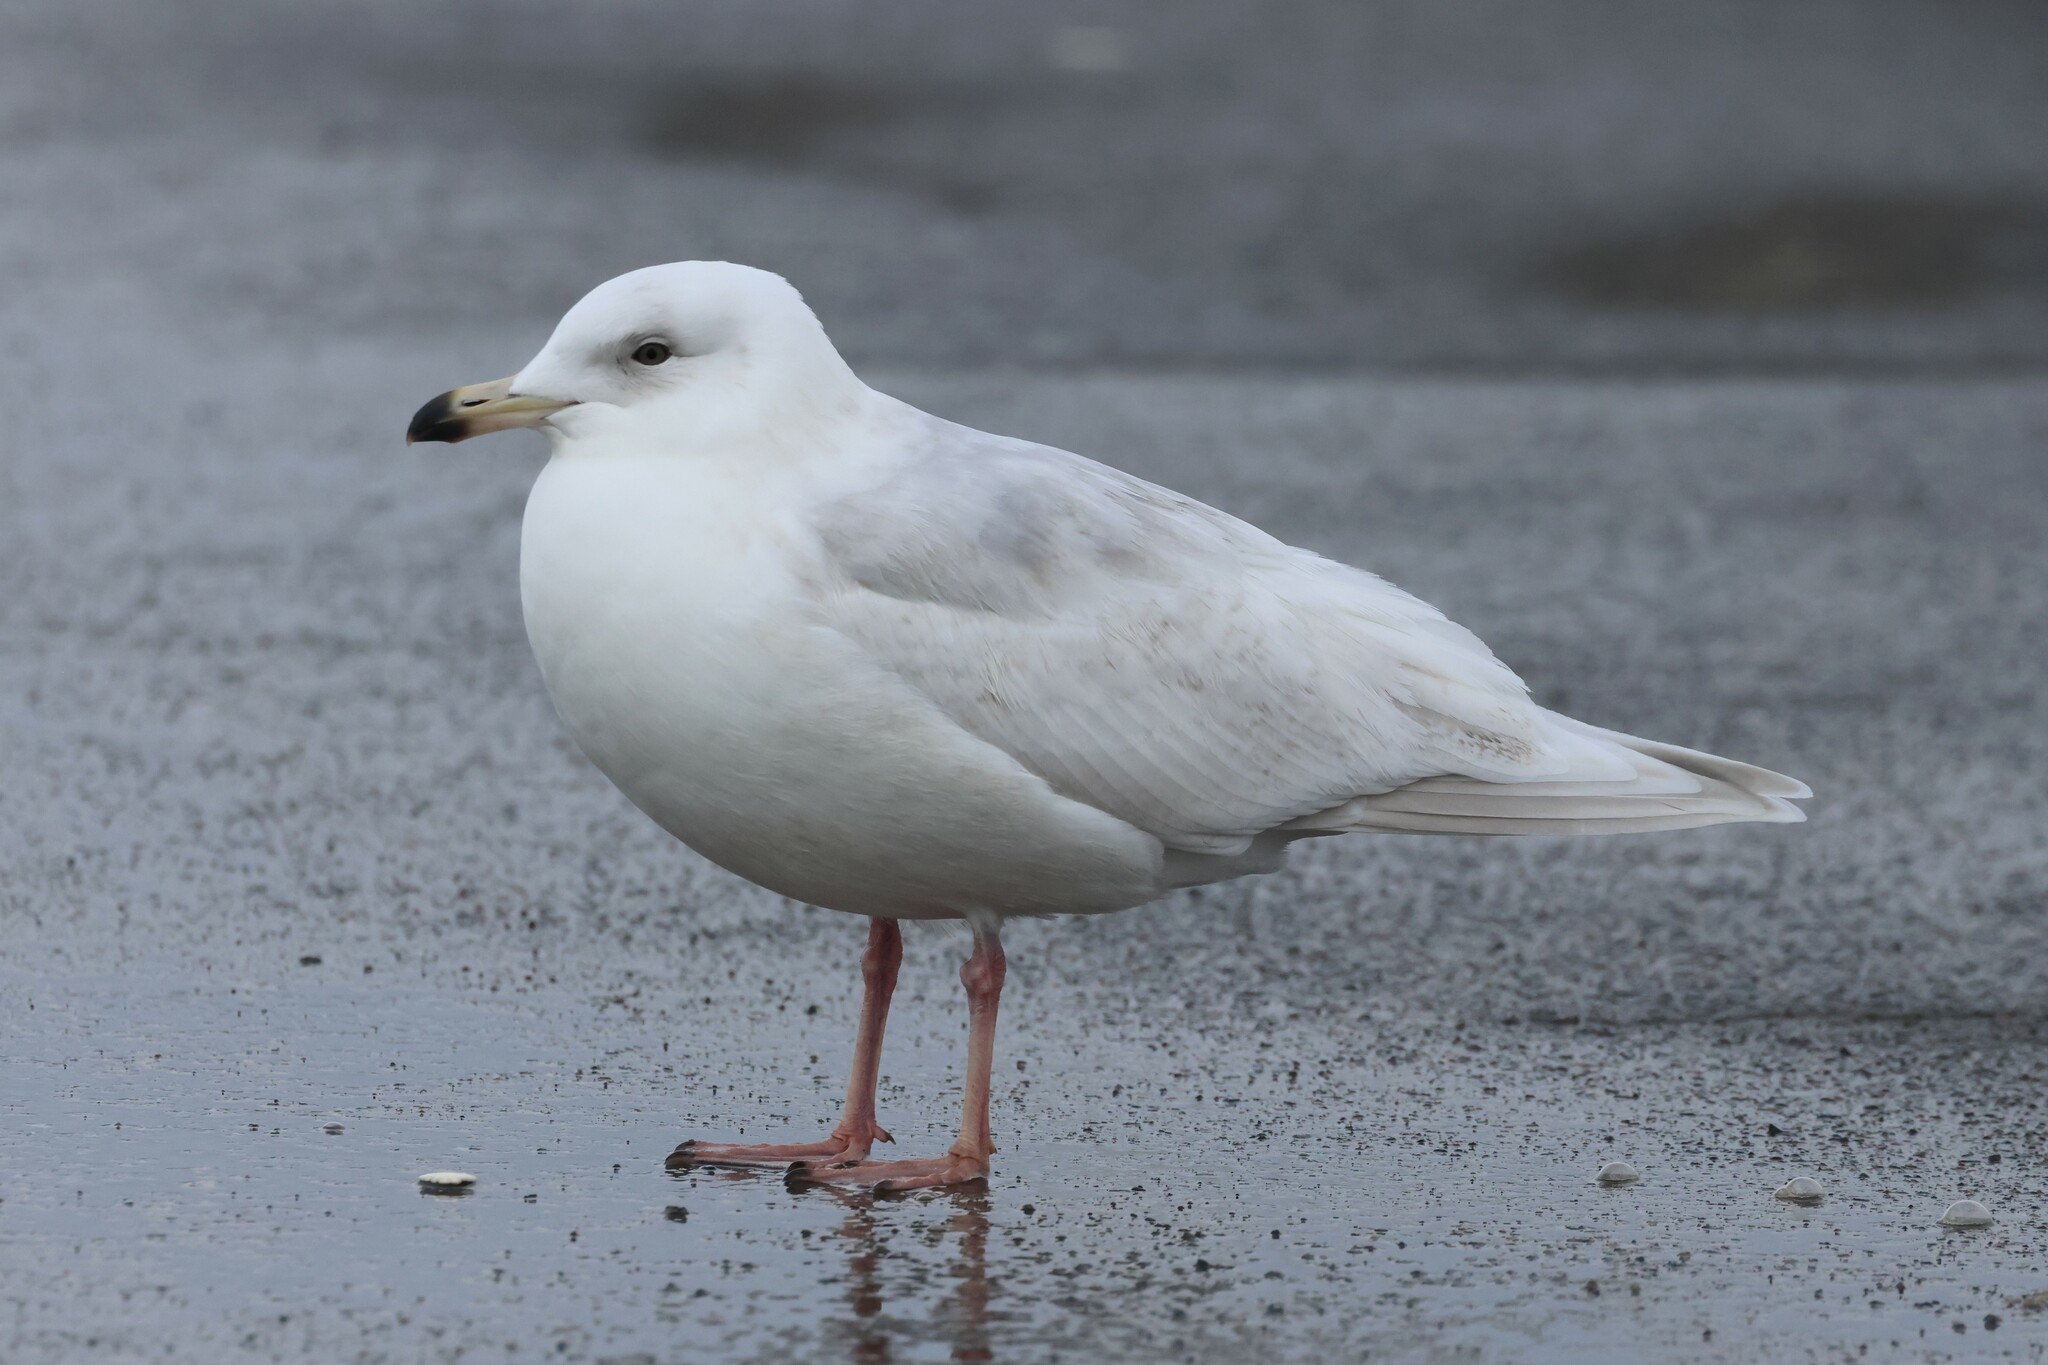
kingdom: Animalia
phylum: Chordata
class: Aves
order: Charadriiformes
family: Laridae
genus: Larus
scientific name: Larus glaucoides
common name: Iceland gull
